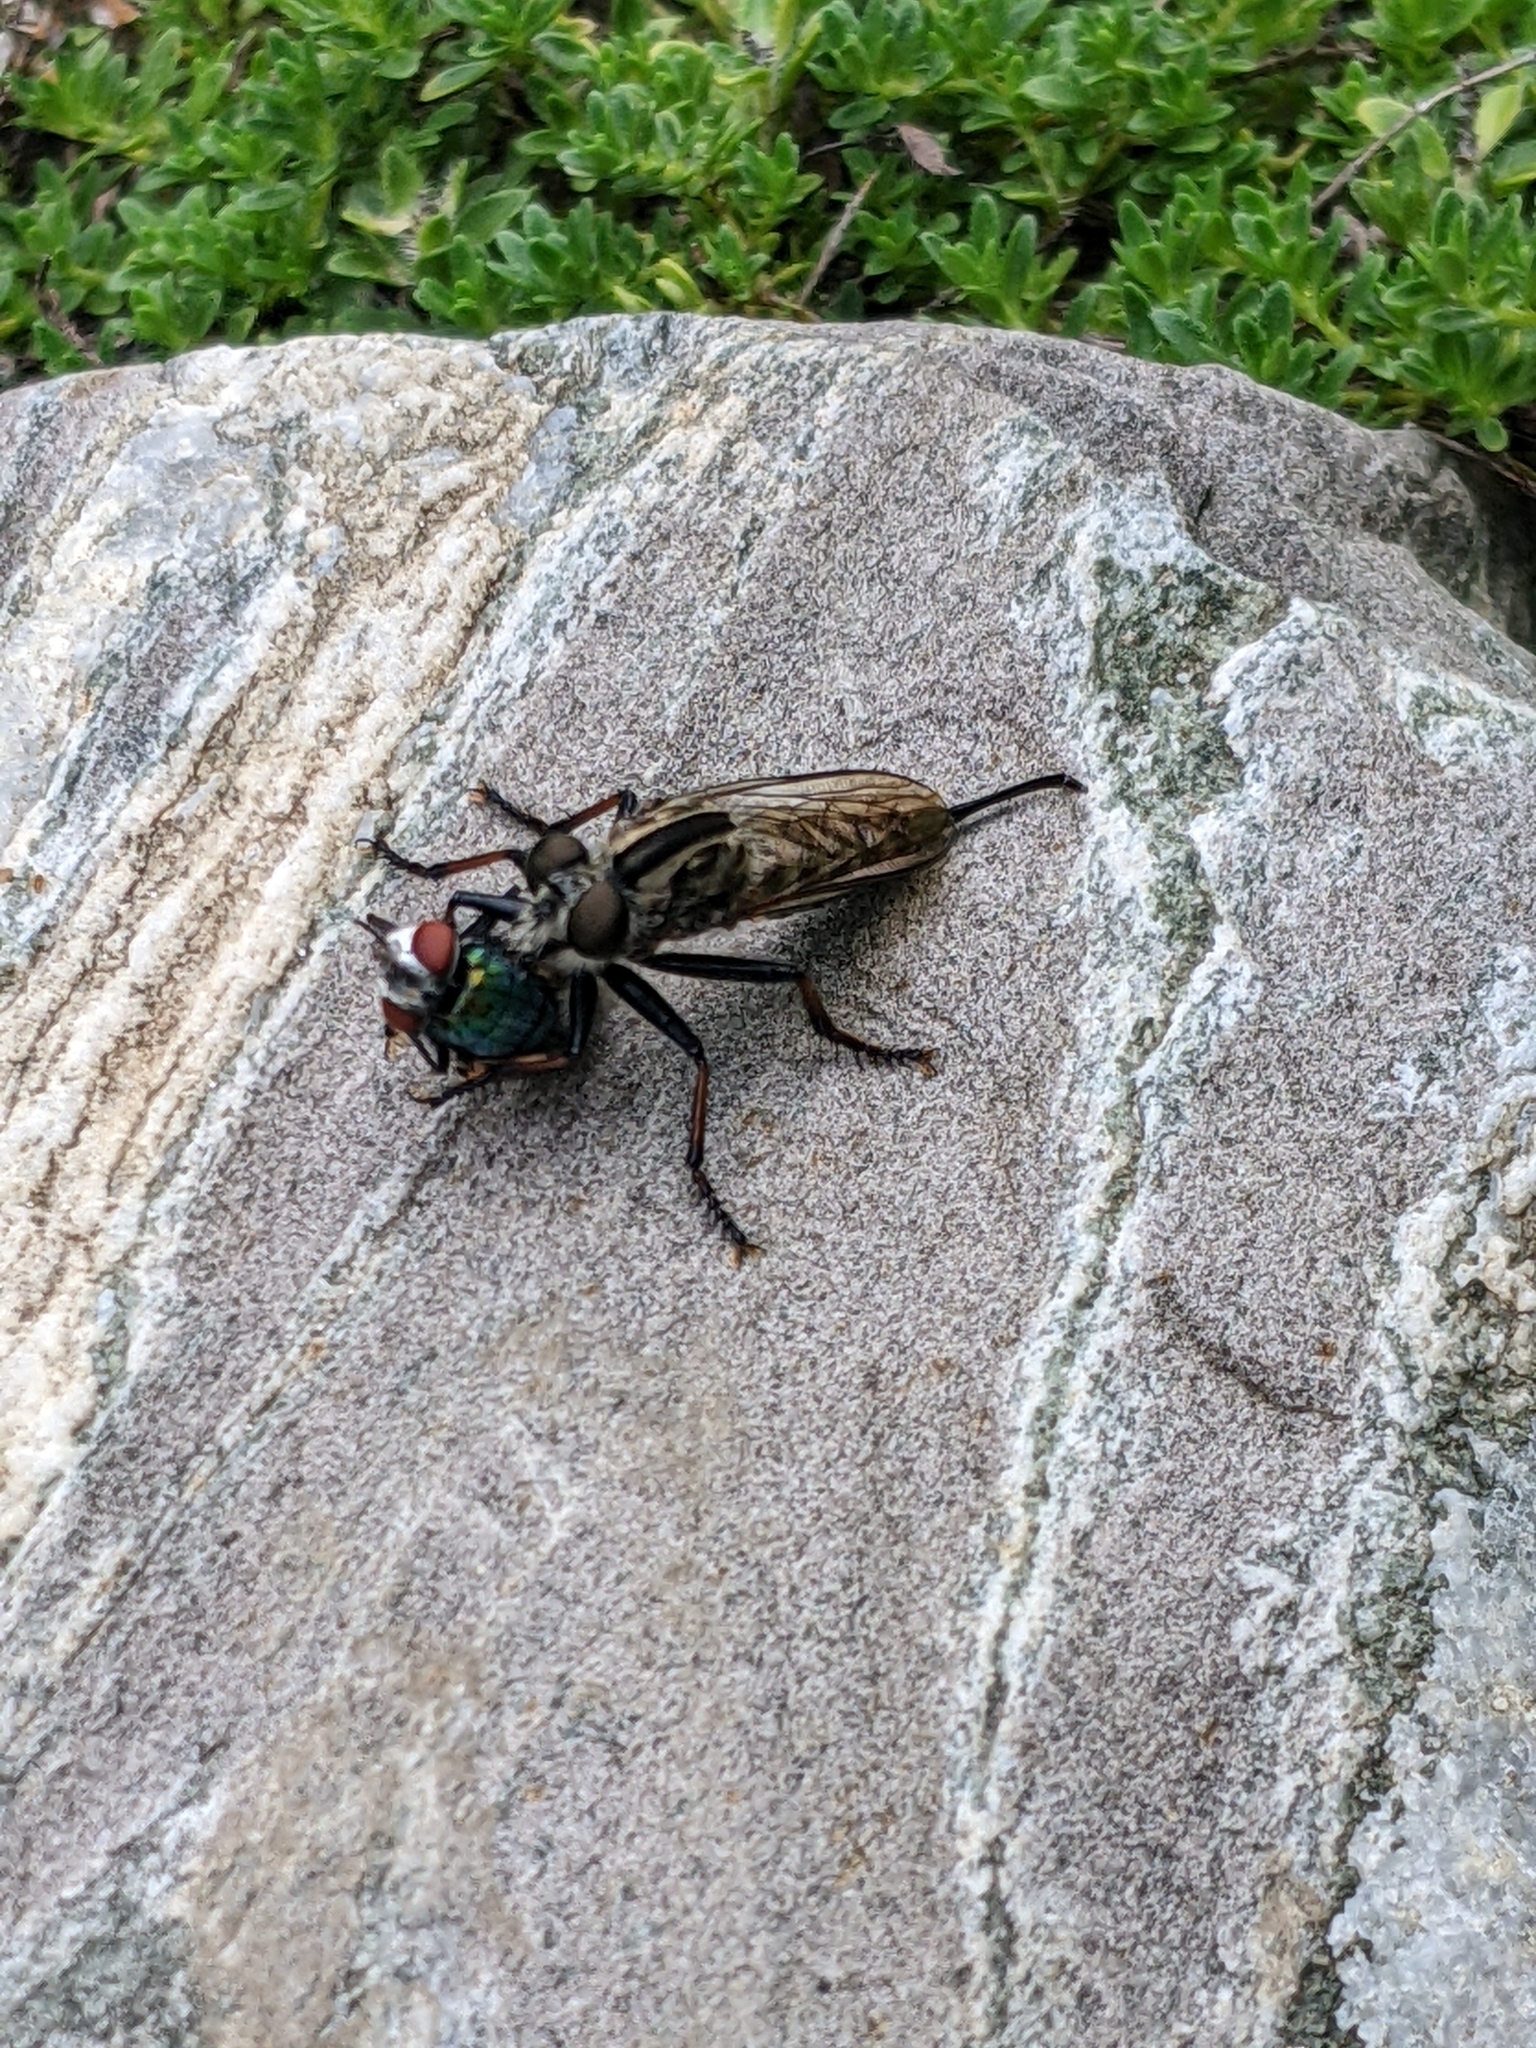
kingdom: Animalia
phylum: Arthropoda
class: Insecta
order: Diptera
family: Asilidae
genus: Efferia
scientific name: Efferia aestuans
